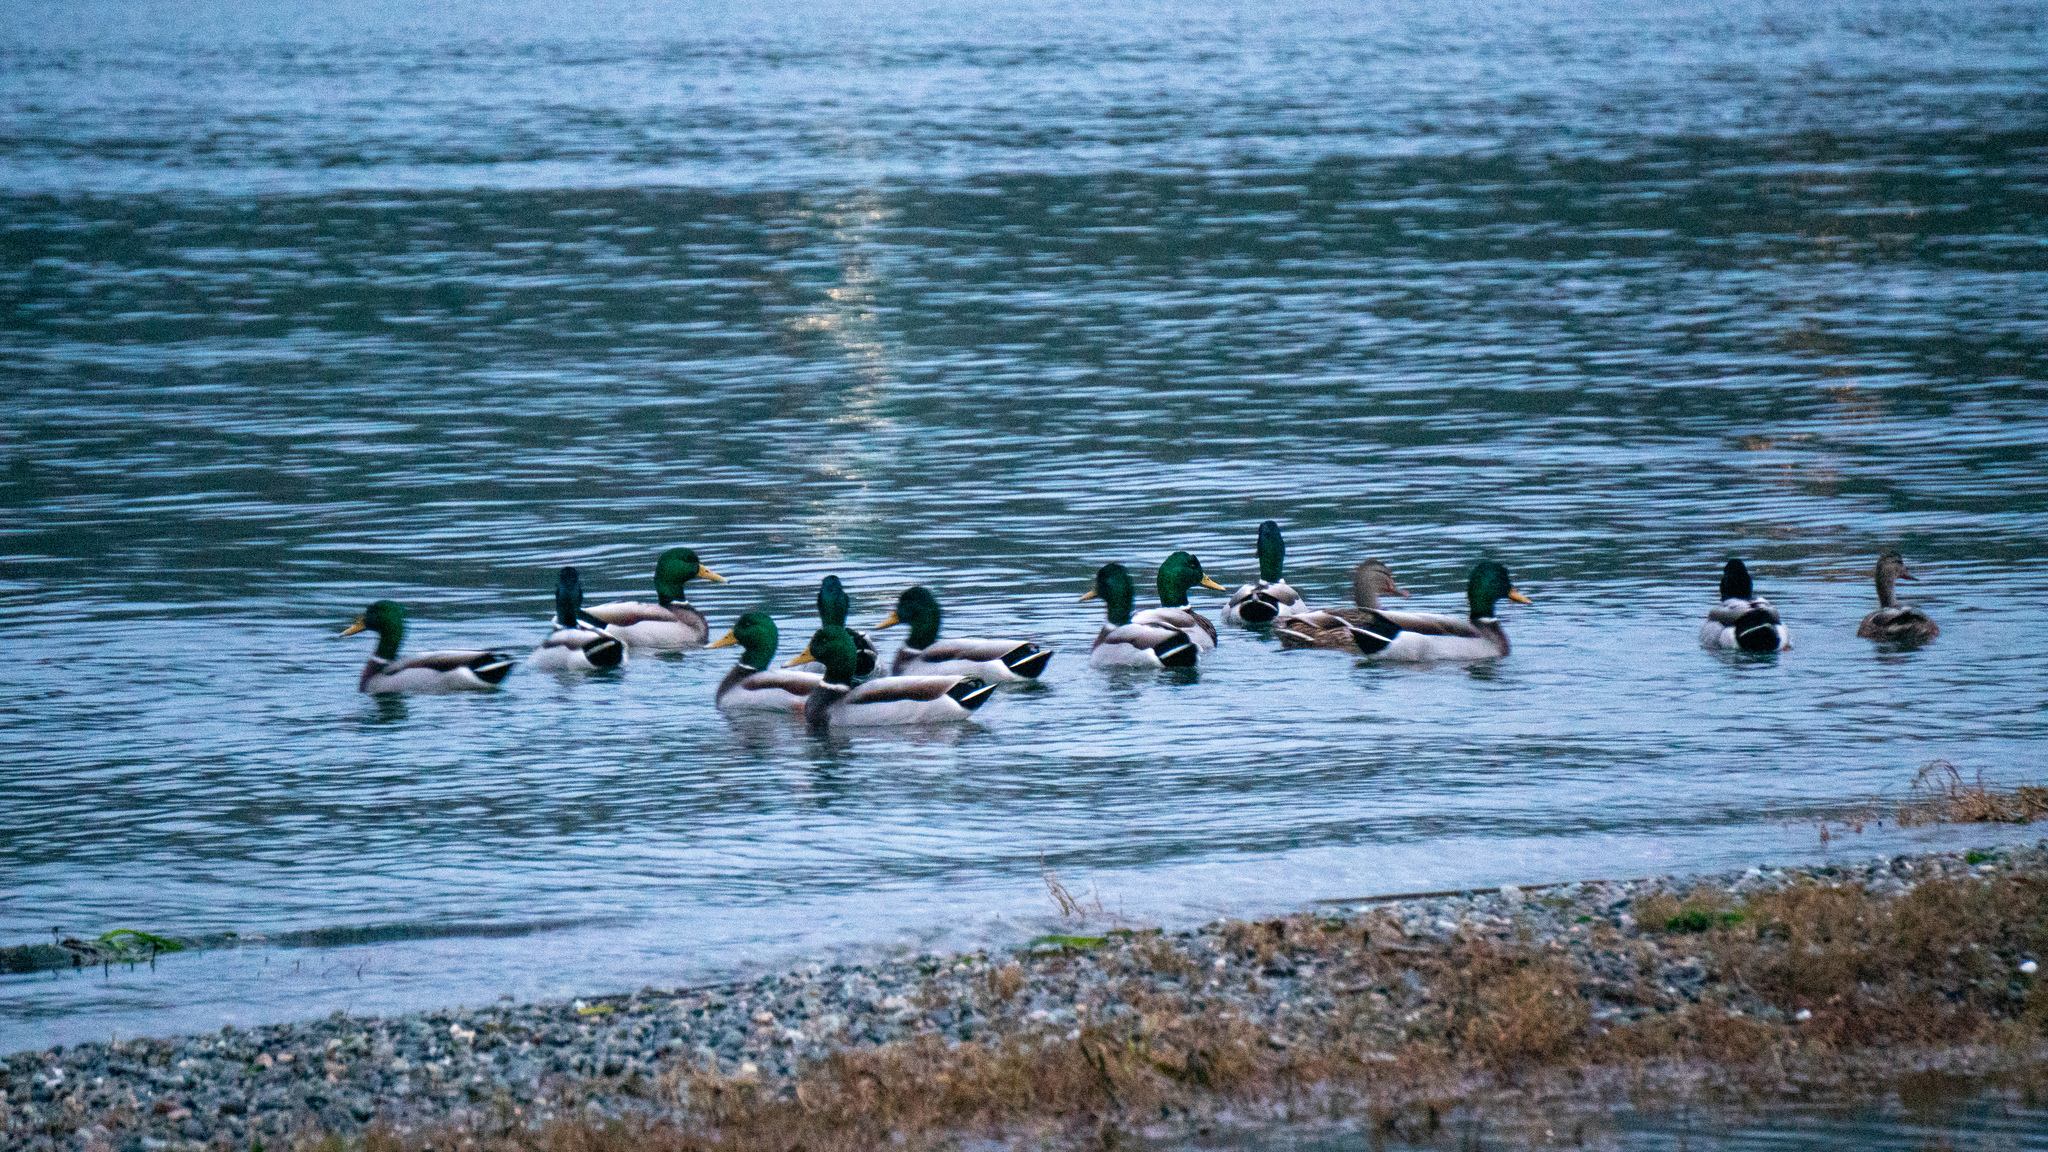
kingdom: Animalia
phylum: Chordata
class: Aves
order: Anseriformes
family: Anatidae
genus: Anas
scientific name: Anas platyrhynchos
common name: Mallard
